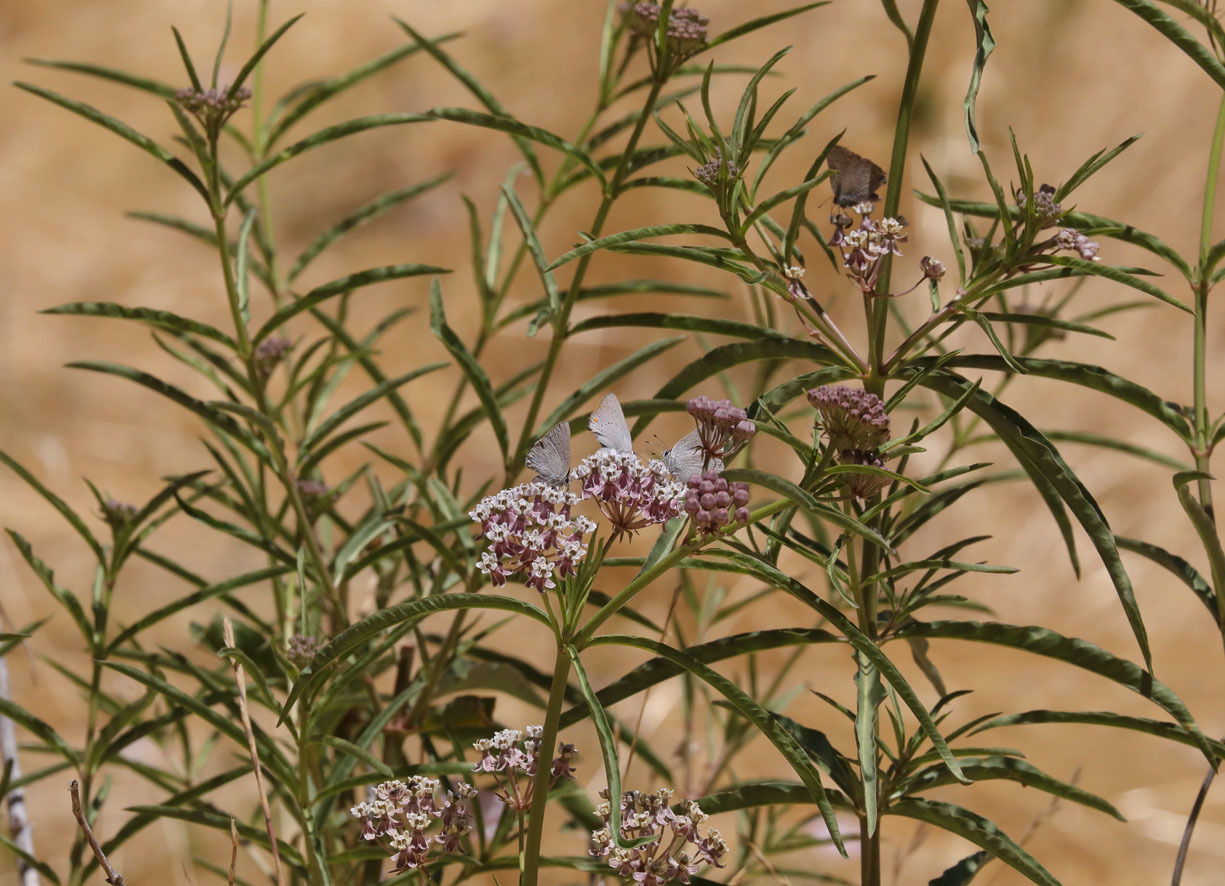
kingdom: Plantae
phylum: Tracheophyta
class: Magnoliopsida
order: Gentianales
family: Apocynaceae
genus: Asclepias
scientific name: Asclepias fascicularis
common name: Mexican milkweed
